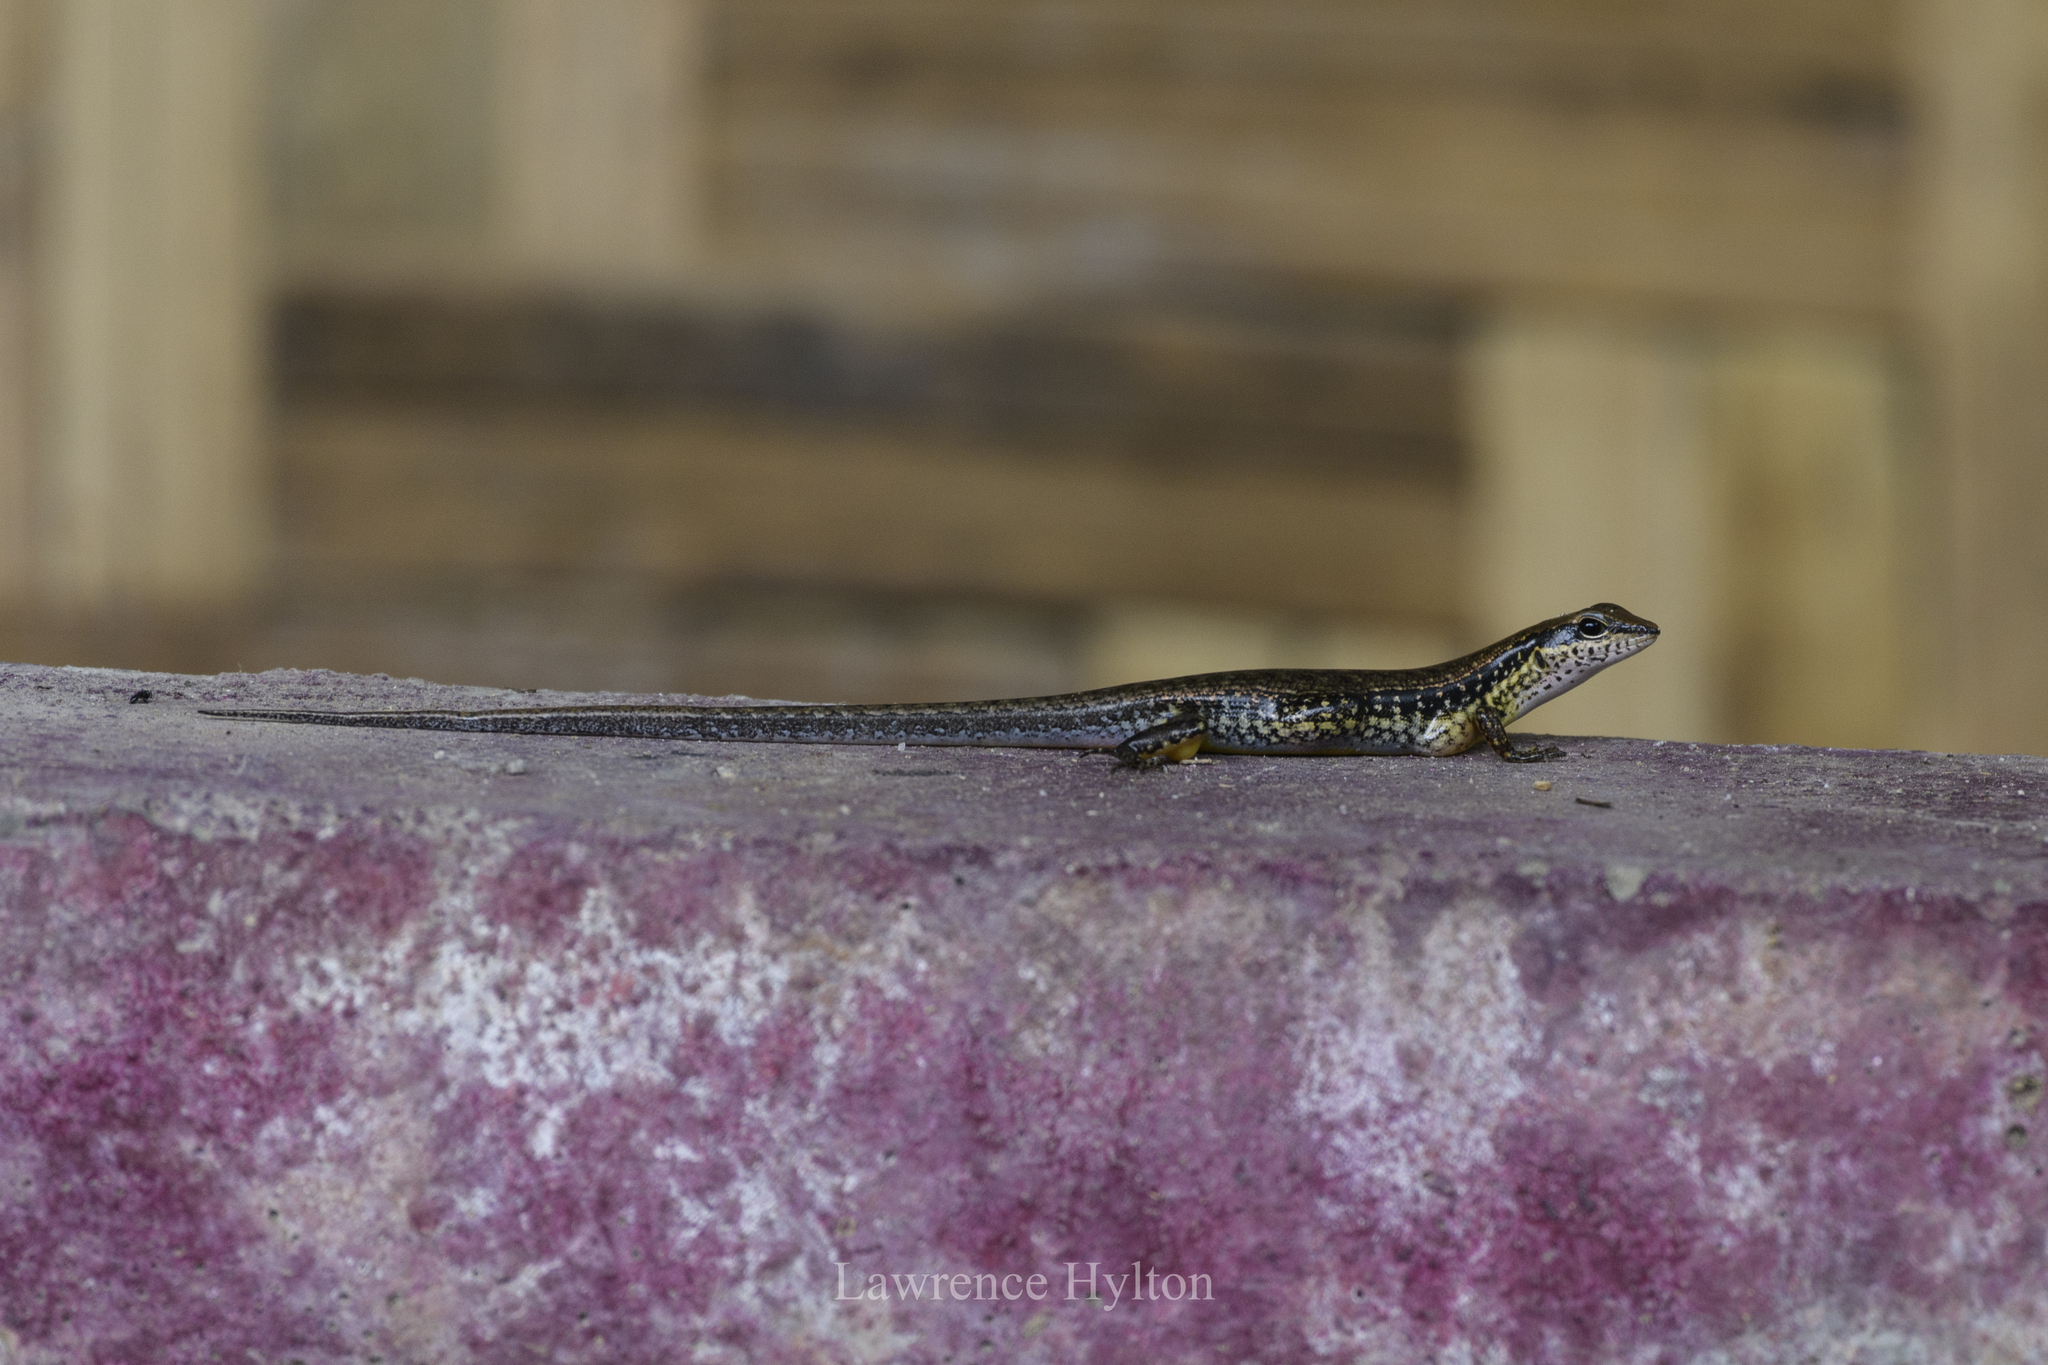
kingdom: Animalia
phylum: Chordata
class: Squamata
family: Scincidae
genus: Sphenomorphus
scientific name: Sphenomorphus maculatus
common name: Maculated forest skink
